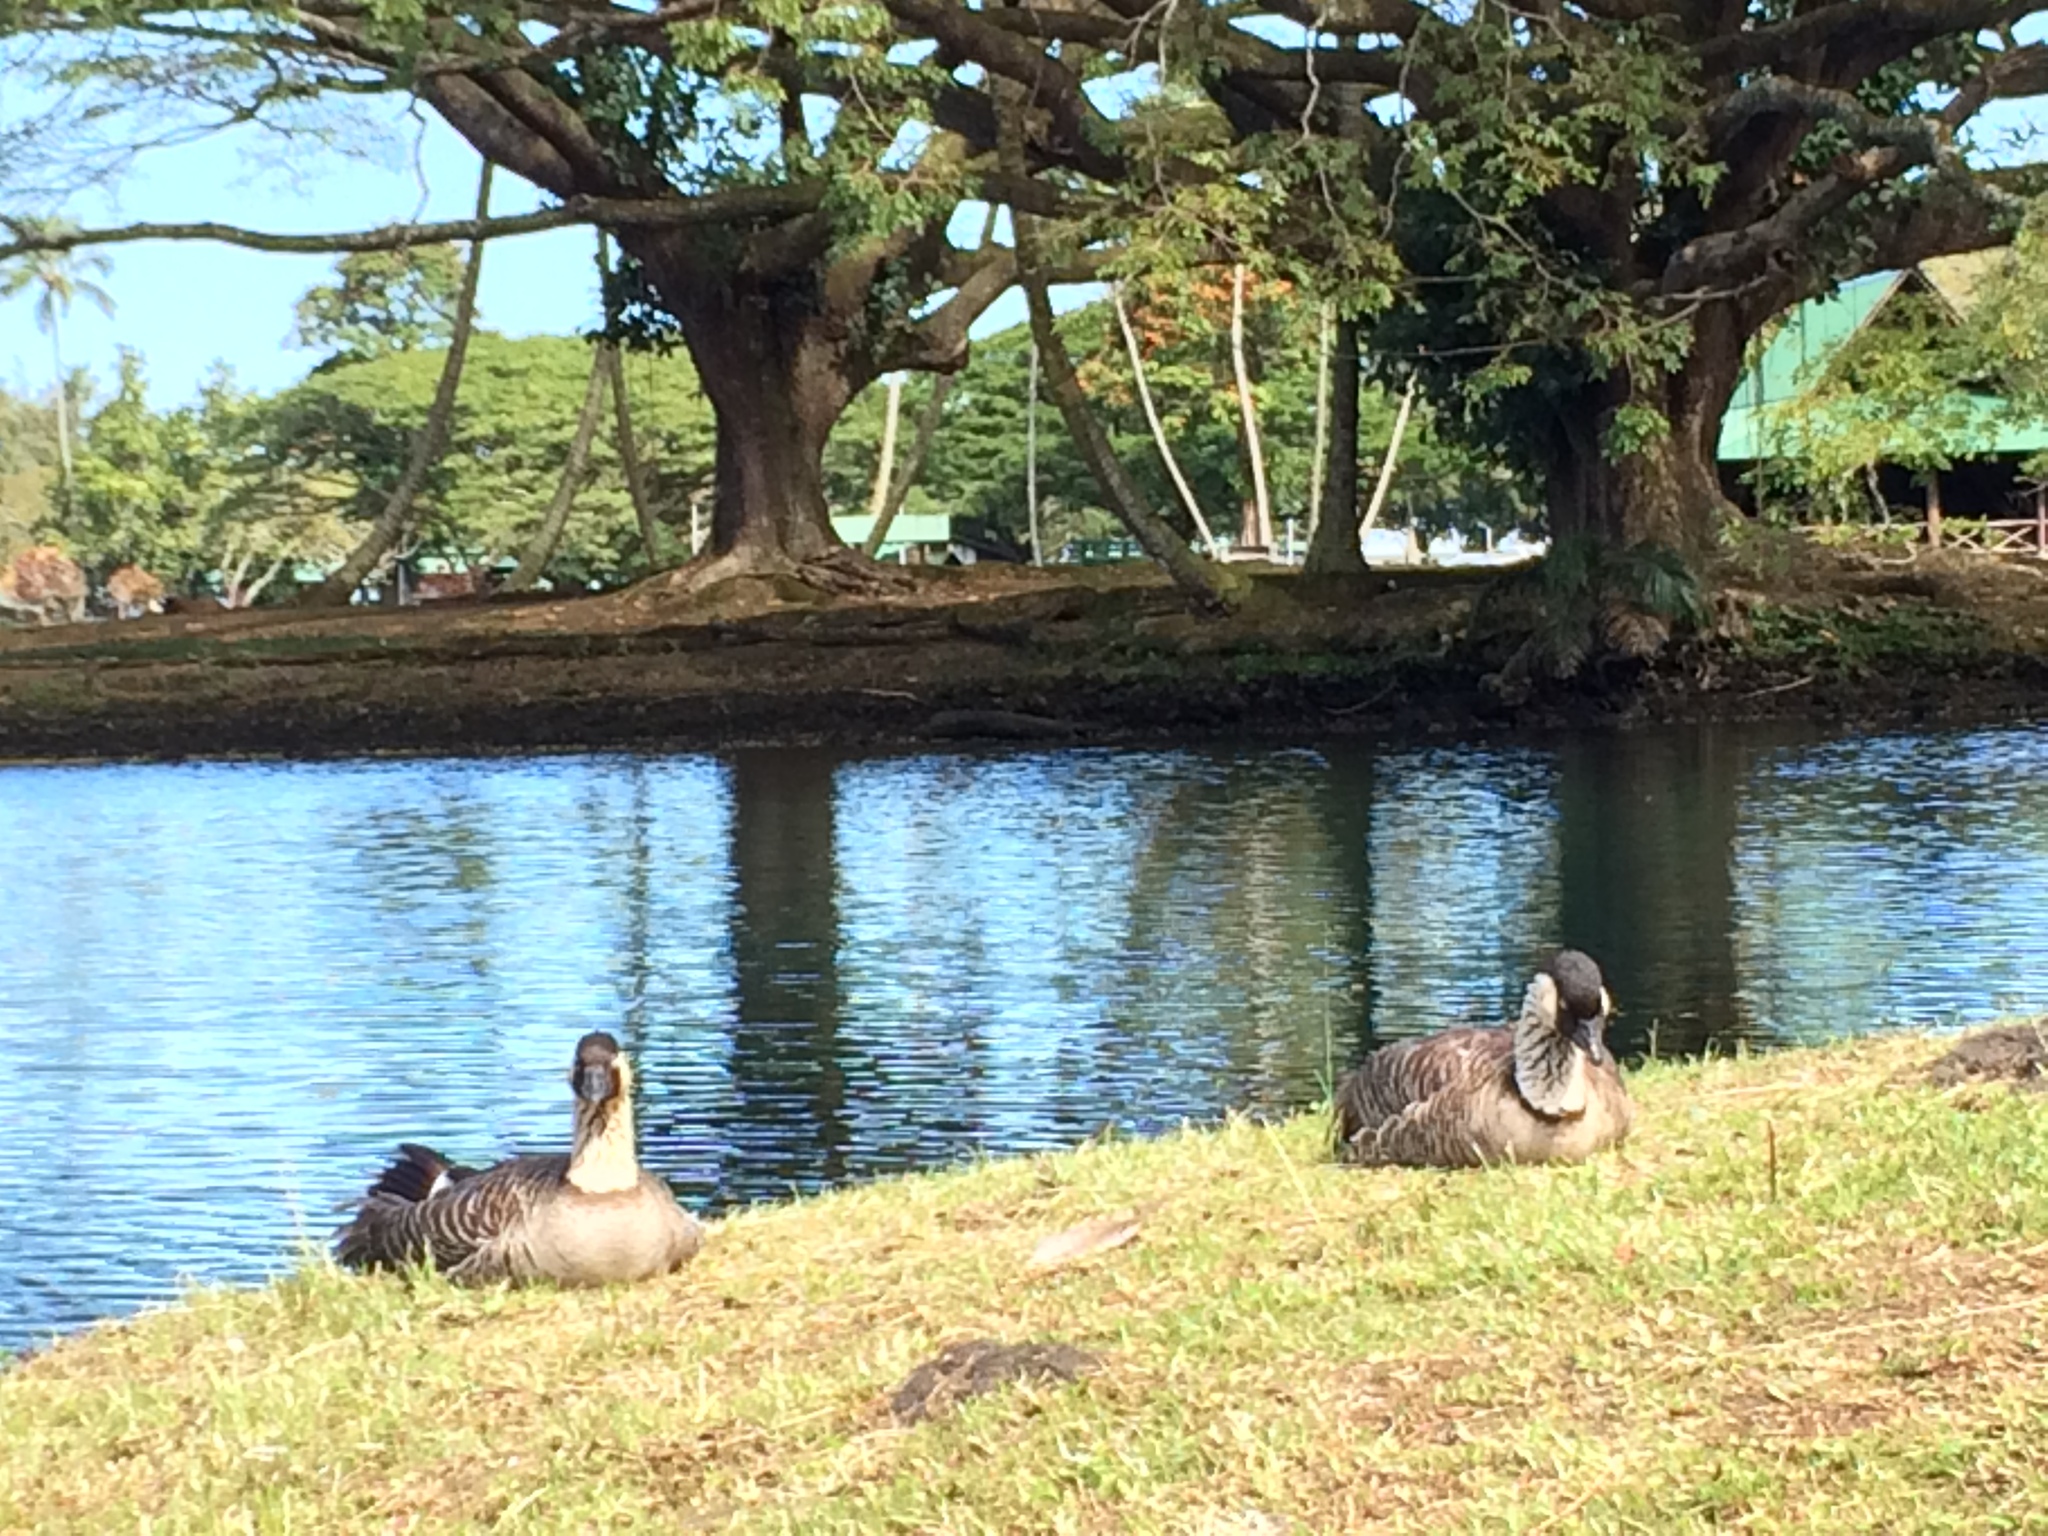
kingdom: Animalia
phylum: Chordata
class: Aves
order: Anseriformes
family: Anatidae
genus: Branta
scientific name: Branta sandvicensis
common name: Nene
